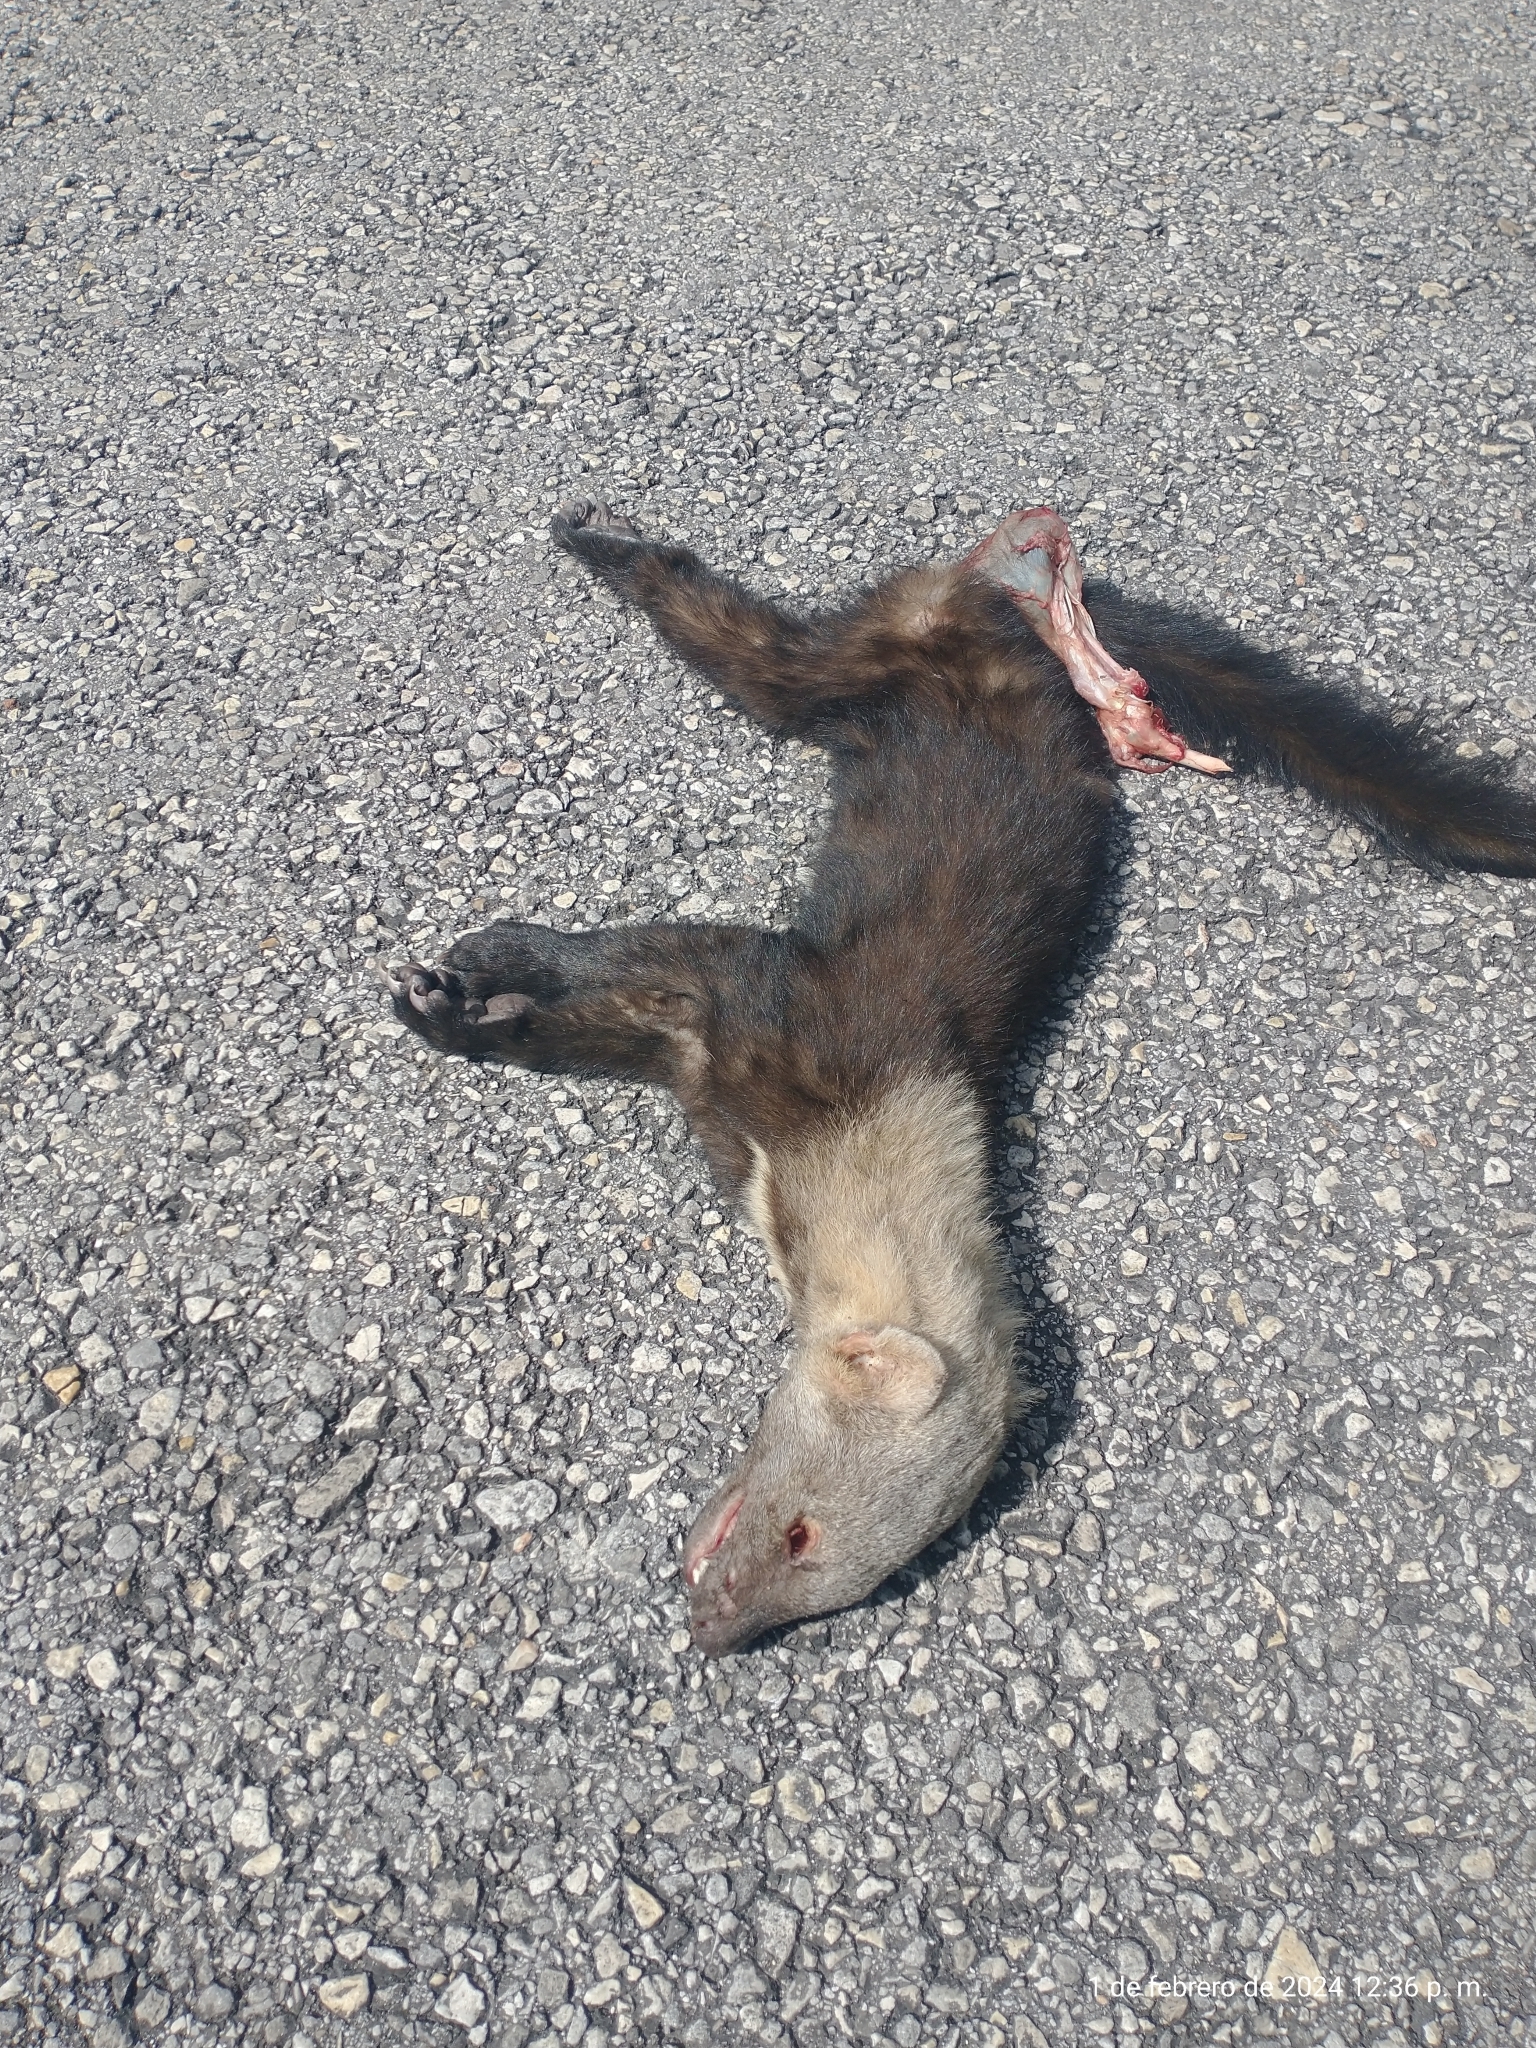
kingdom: Animalia
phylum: Chordata
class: Mammalia
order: Carnivora
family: Mustelidae
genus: Eira
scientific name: Eira barbara
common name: Tayra
